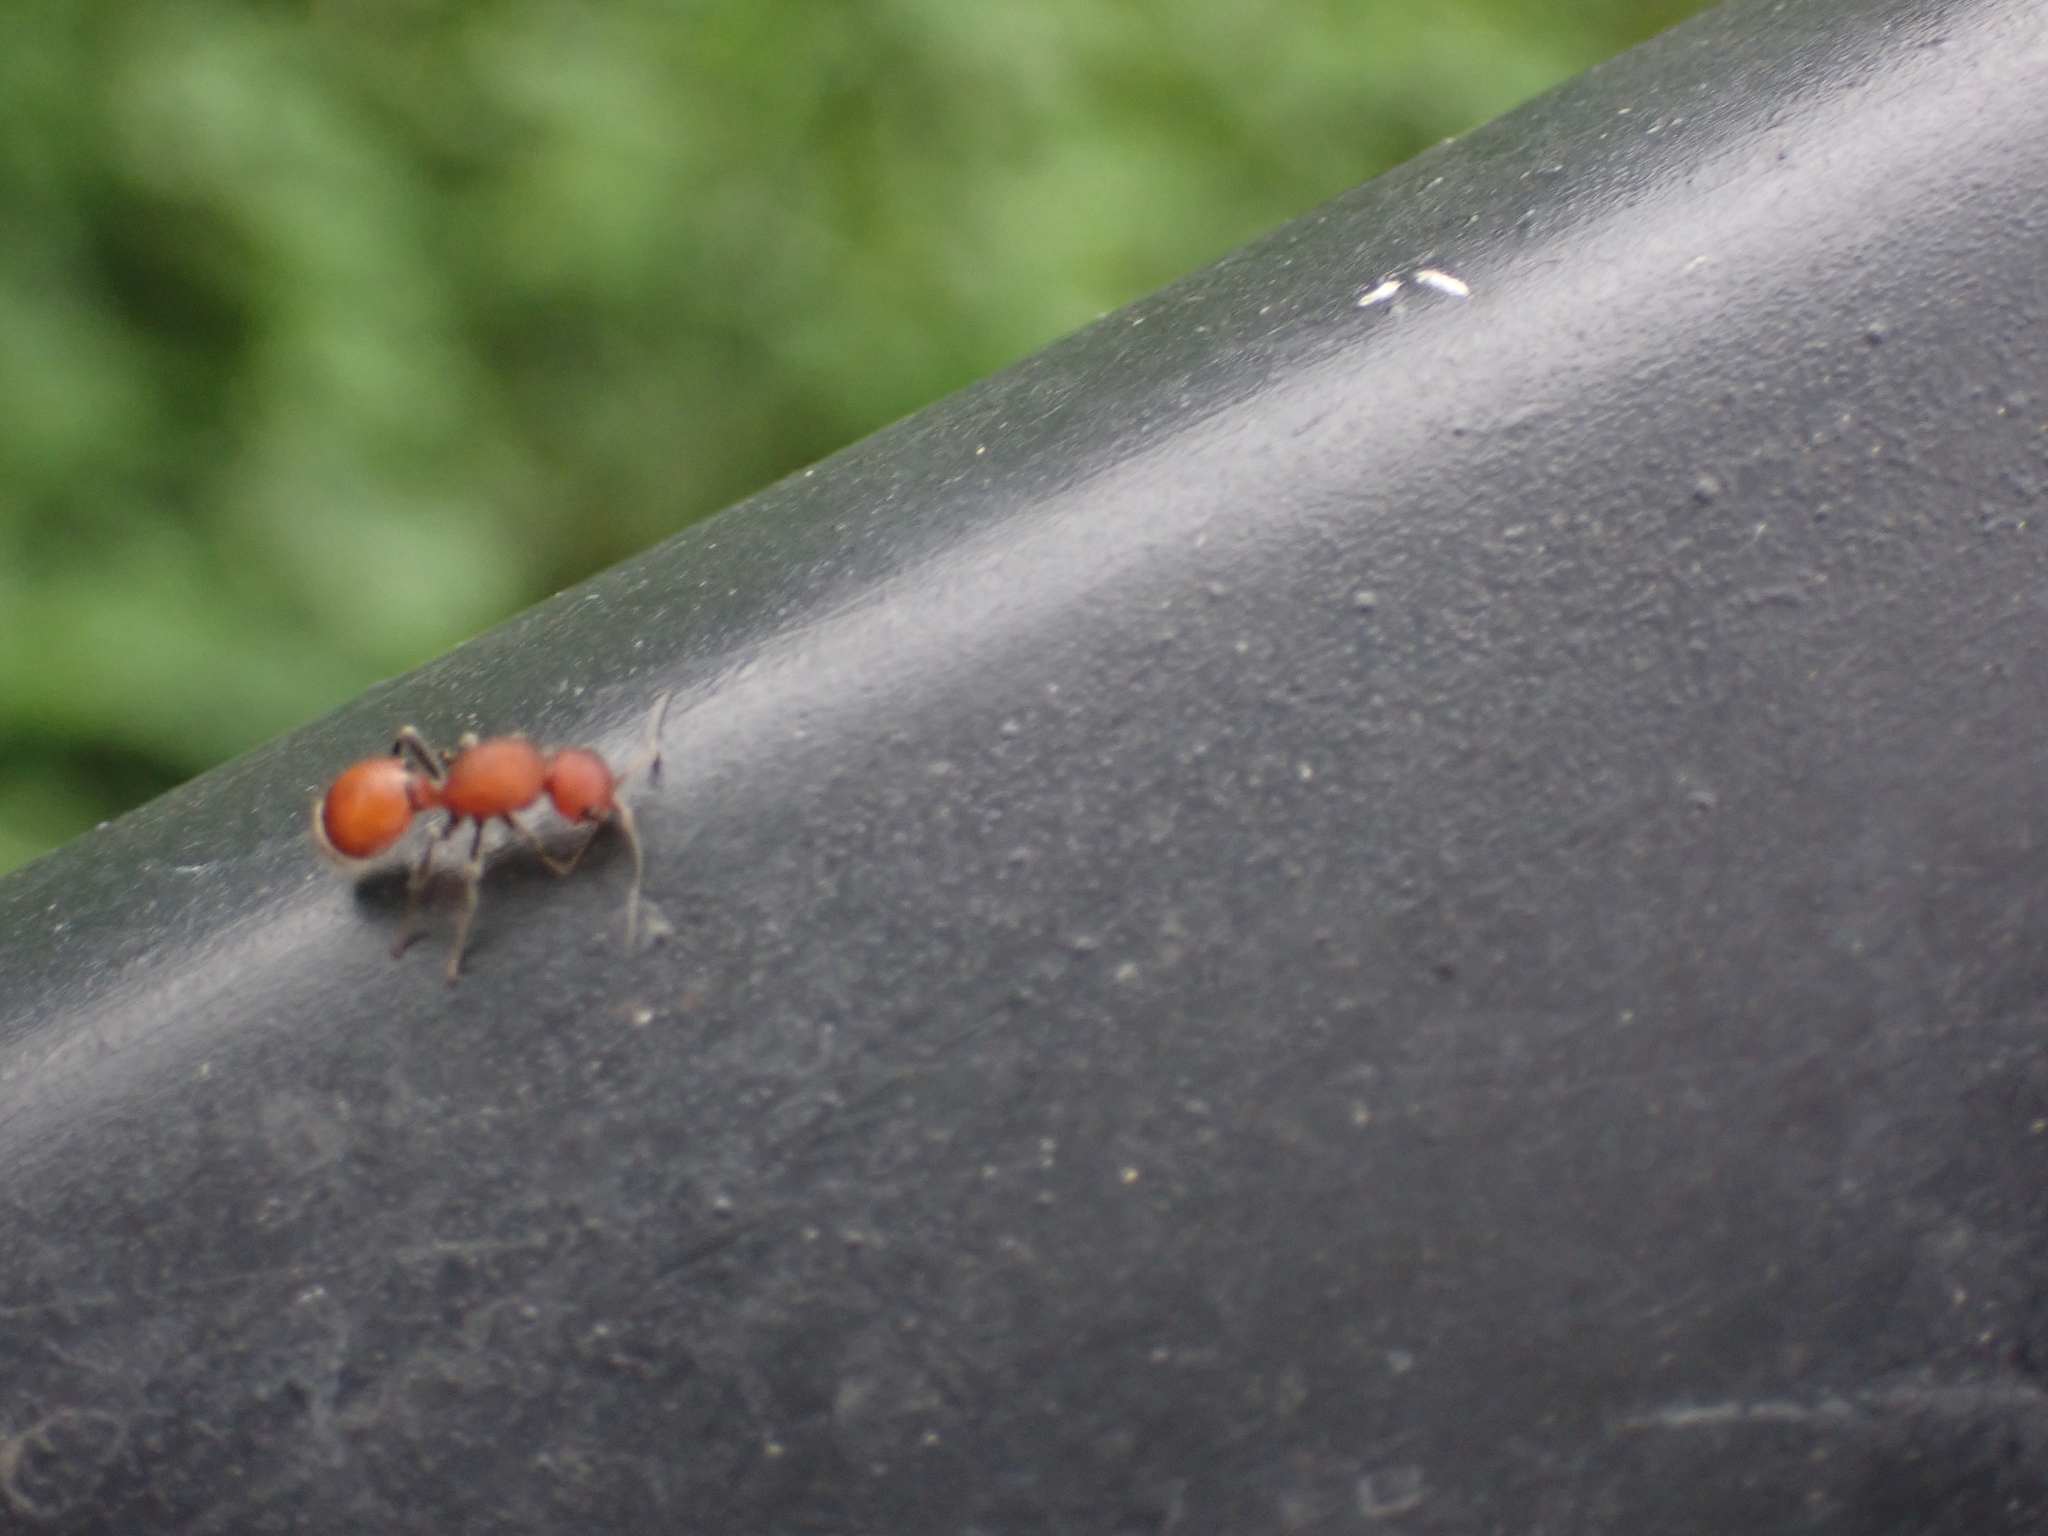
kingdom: Animalia
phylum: Arthropoda
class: Insecta
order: Hymenoptera
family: Mutillidae
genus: Sphaeropthalma
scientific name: Sphaeropthalma
